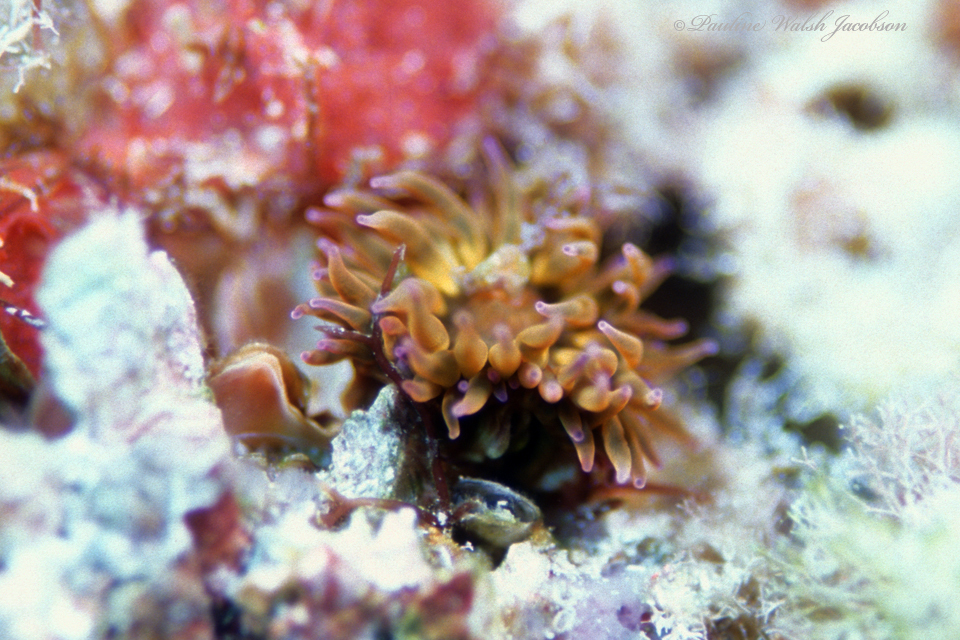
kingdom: Animalia
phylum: Cnidaria
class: Anthozoa
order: Actiniaria
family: Actiniidae
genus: Anemonia
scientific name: Anemonia sargassensis
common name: Sargassum anemone
